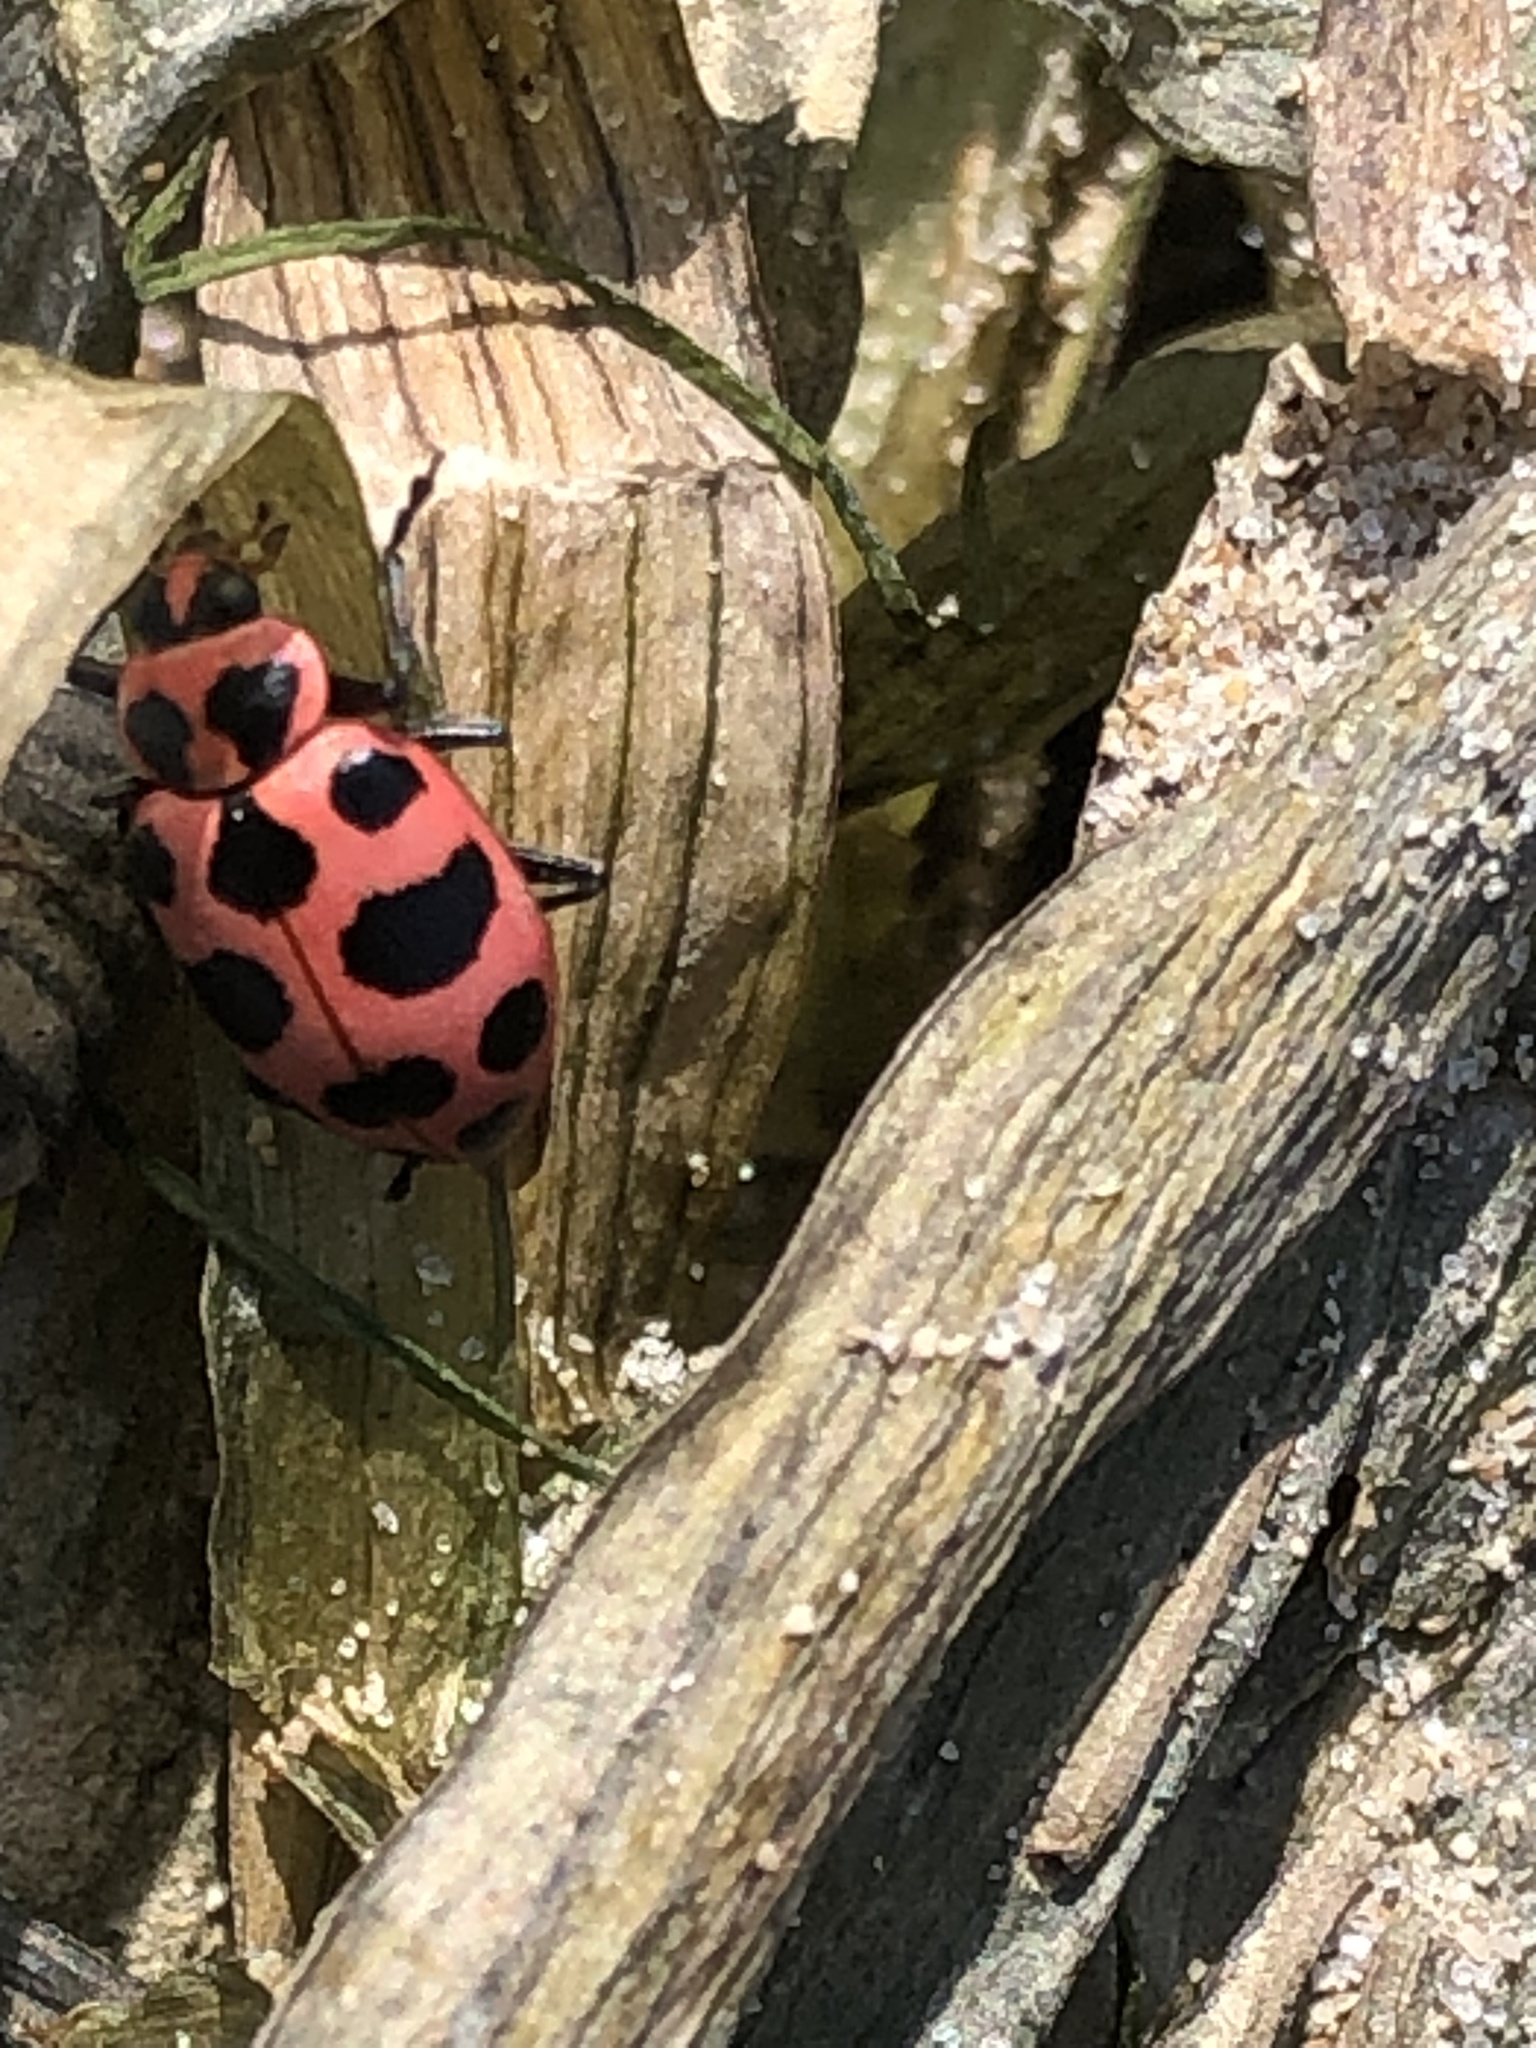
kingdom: Animalia
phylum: Arthropoda
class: Insecta
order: Coleoptera
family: Coccinellidae
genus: Coleomegilla
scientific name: Coleomegilla maculata
